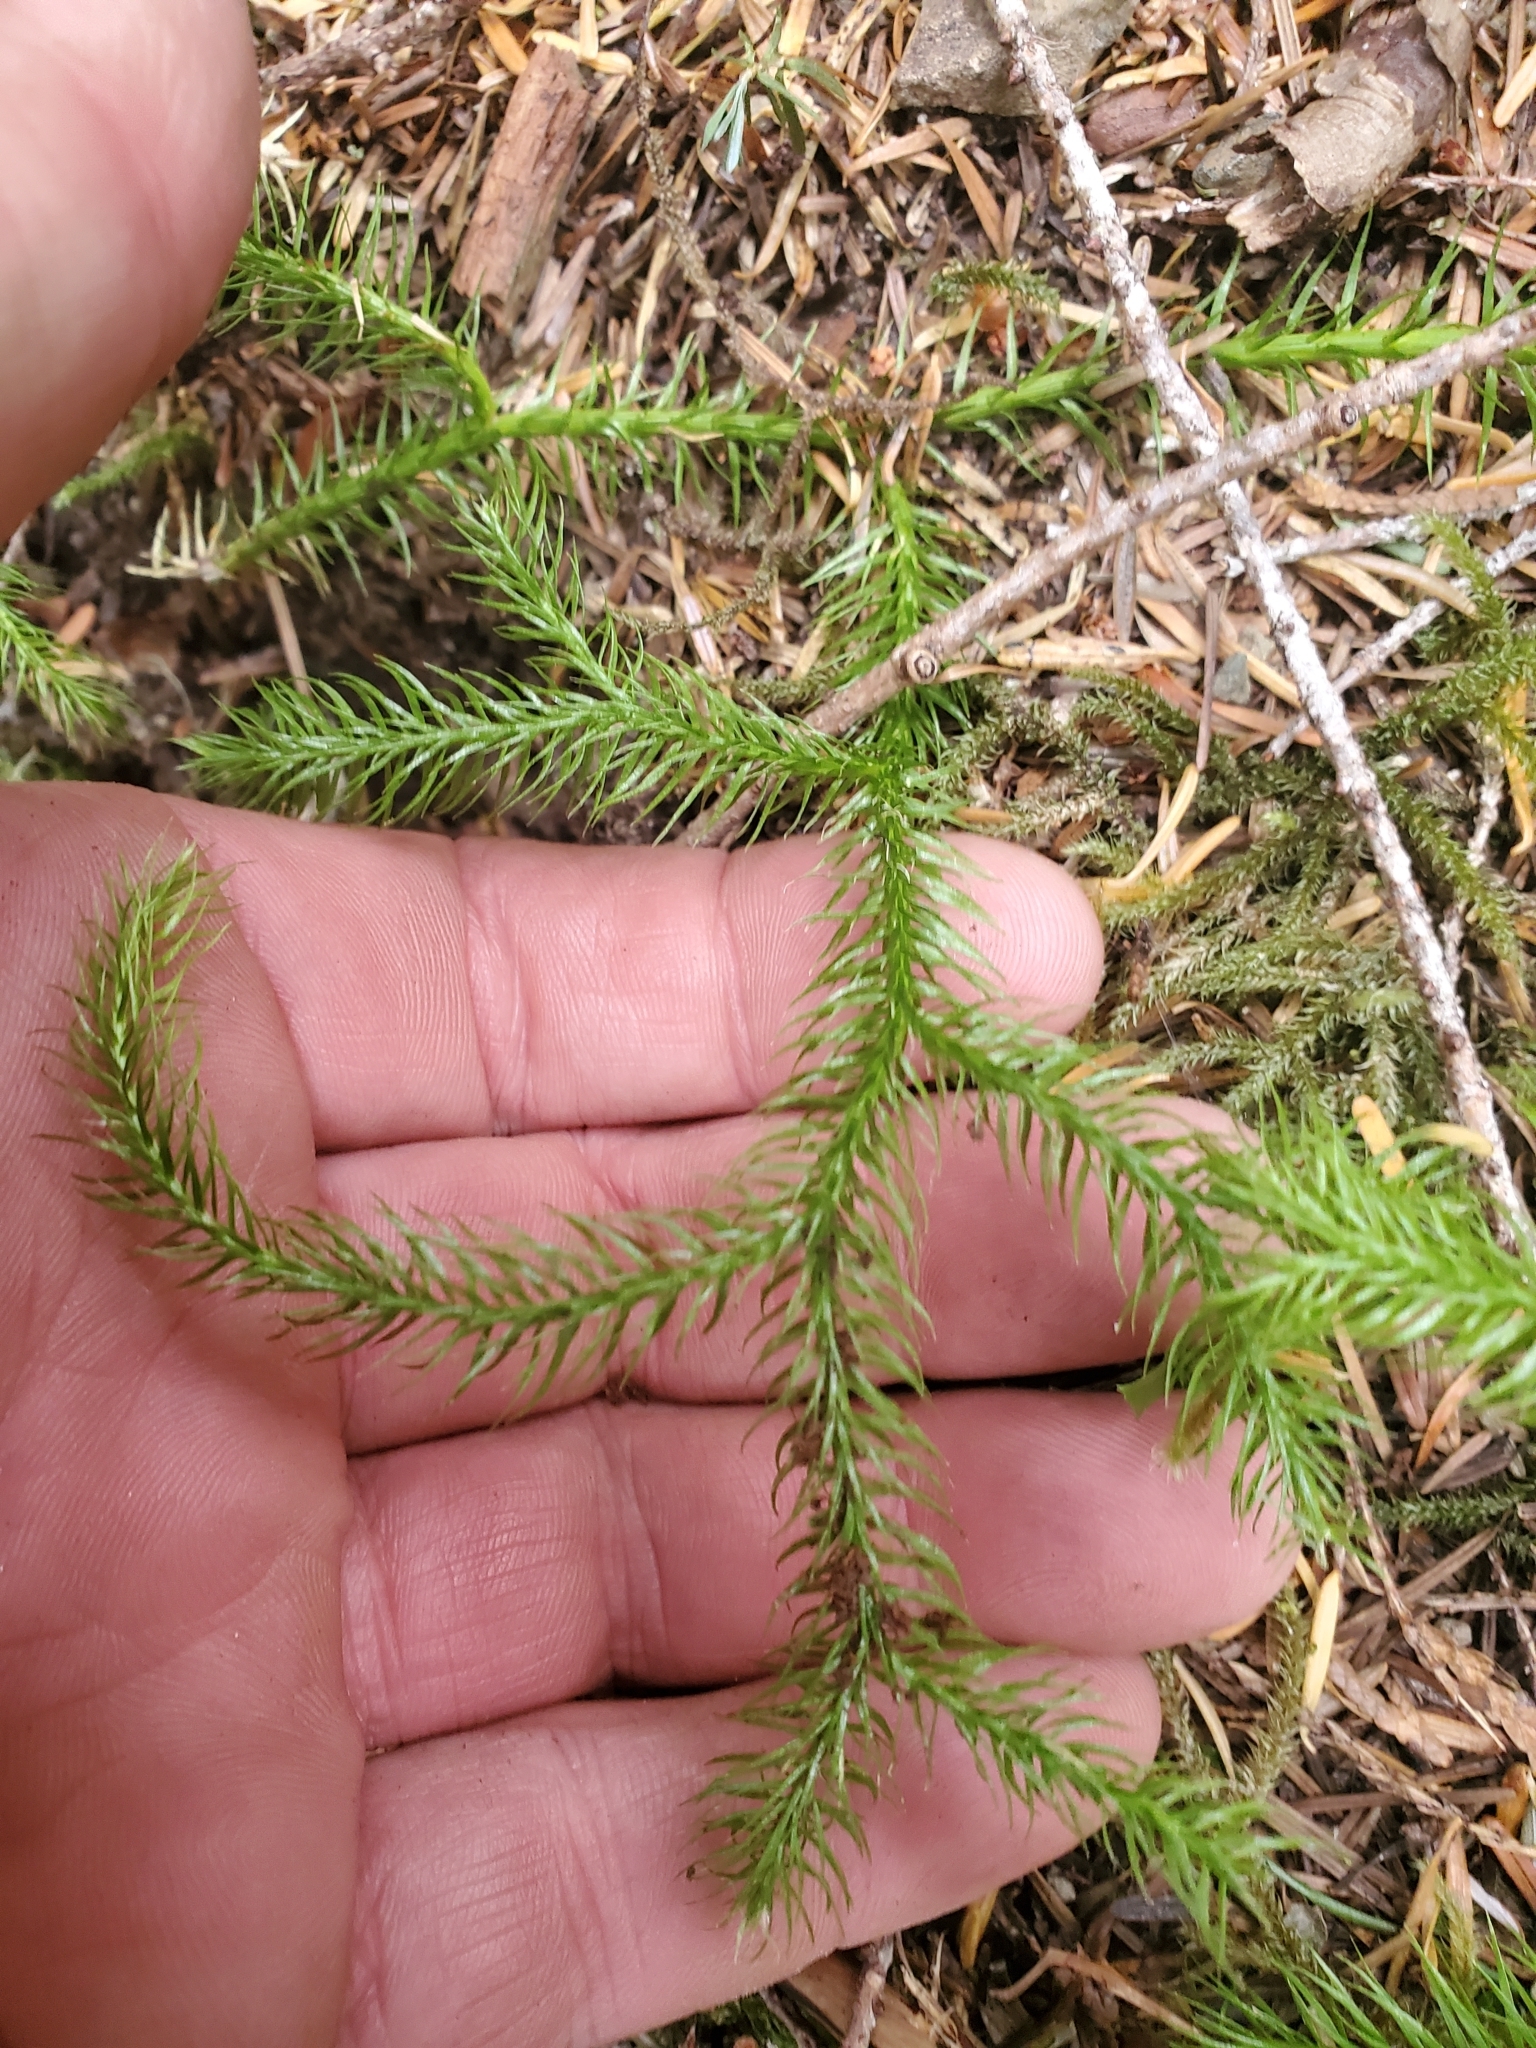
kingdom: Plantae
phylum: Tracheophyta
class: Lycopodiopsida
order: Lycopodiales
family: Lycopodiaceae
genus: Lycopodium
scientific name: Lycopodium clavatum
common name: Stag's-horn clubmoss
